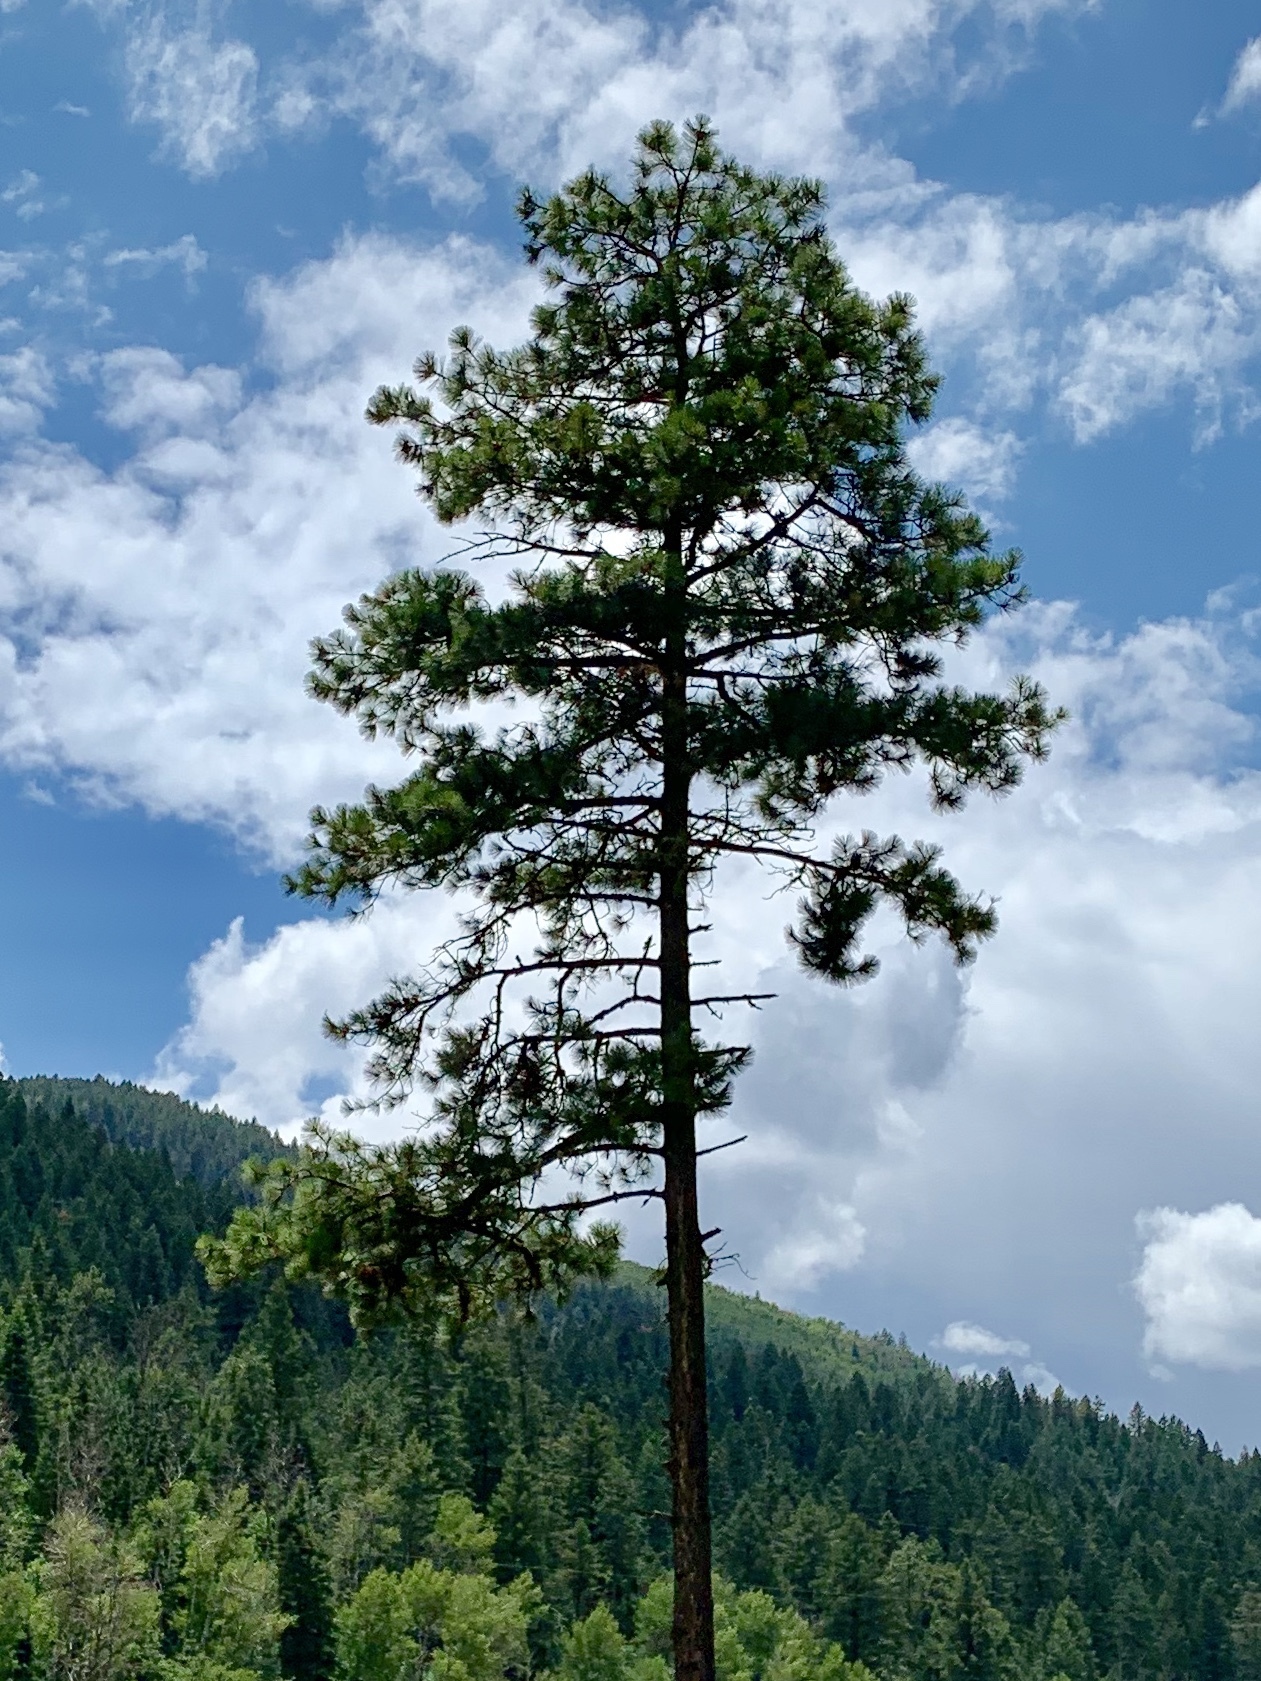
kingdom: Plantae
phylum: Tracheophyta
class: Pinopsida
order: Pinales
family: Pinaceae
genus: Pinus
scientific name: Pinus ponderosa
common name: Western yellow-pine
